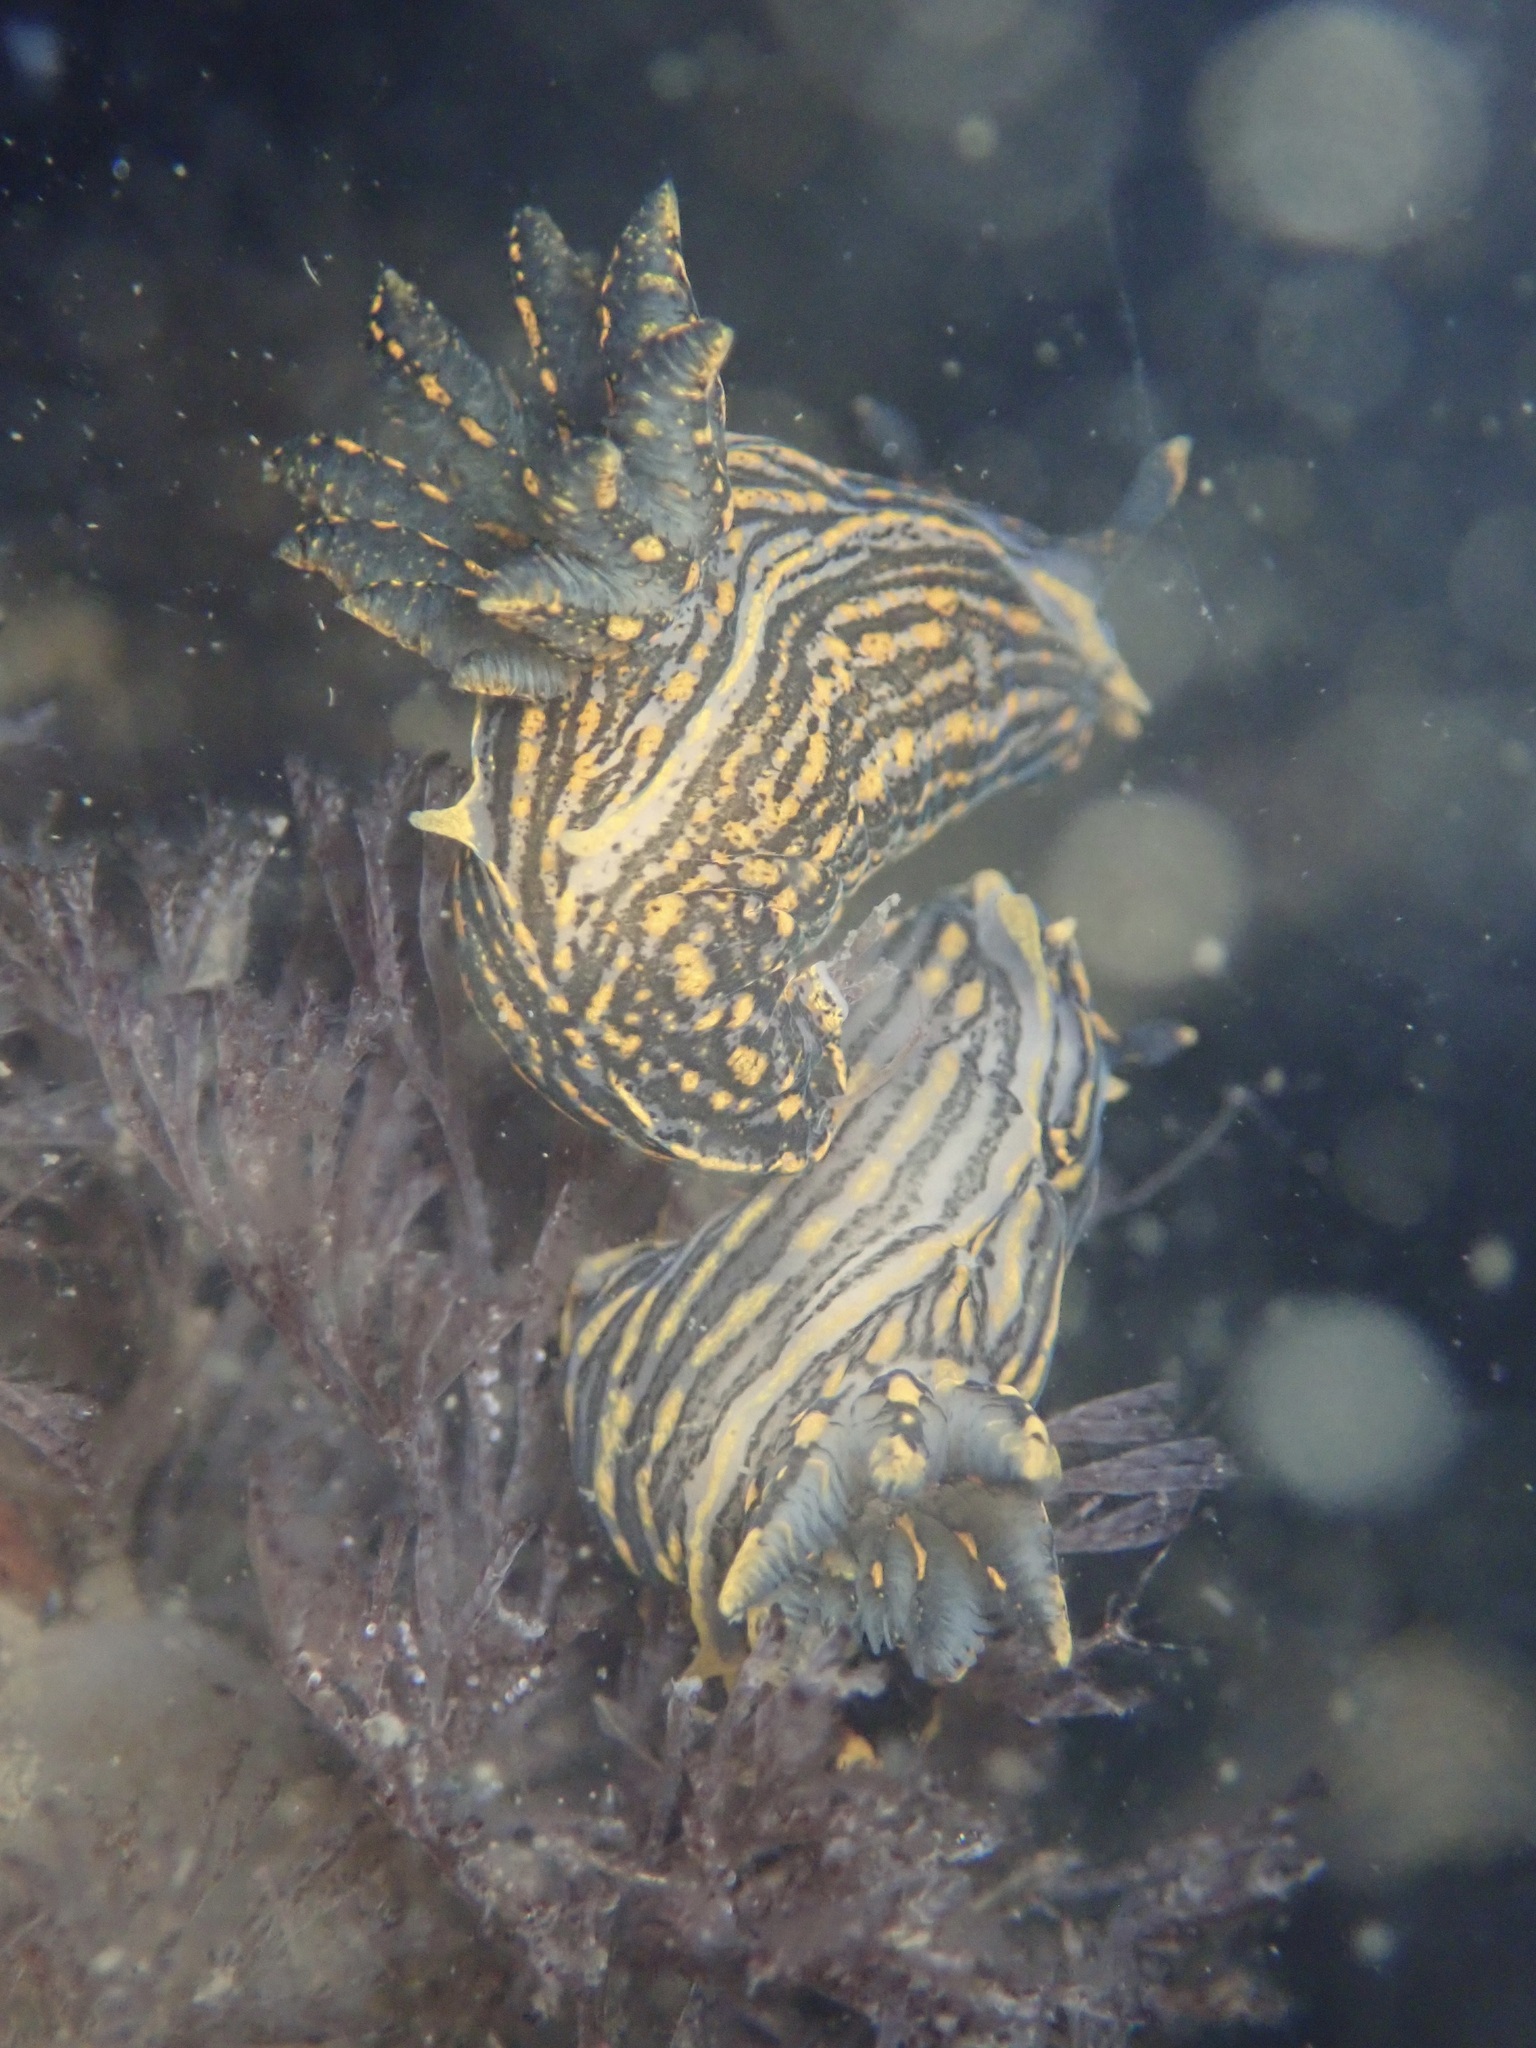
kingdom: Animalia
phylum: Mollusca
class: Gastropoda
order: Nudibranchia
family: Polyceridae
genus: Polycera
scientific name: Polycera atra
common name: Orange-spike polycera
